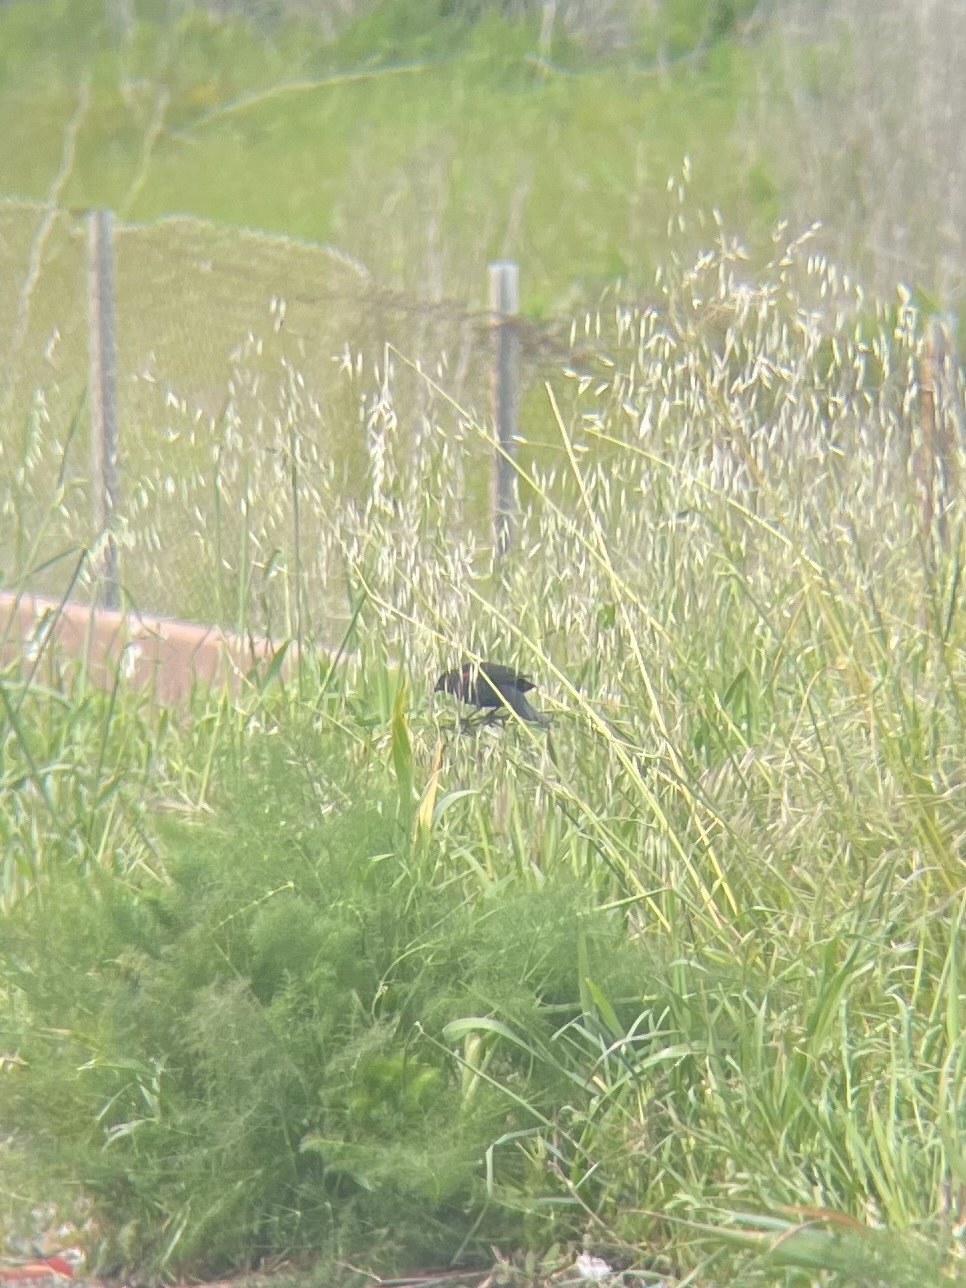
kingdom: Animalia
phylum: Chordata
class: Aves
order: Passeriformes
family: Icteridae
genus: Agelaius
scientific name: Agelaius phoeniceus
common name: Red-winged blackbird
